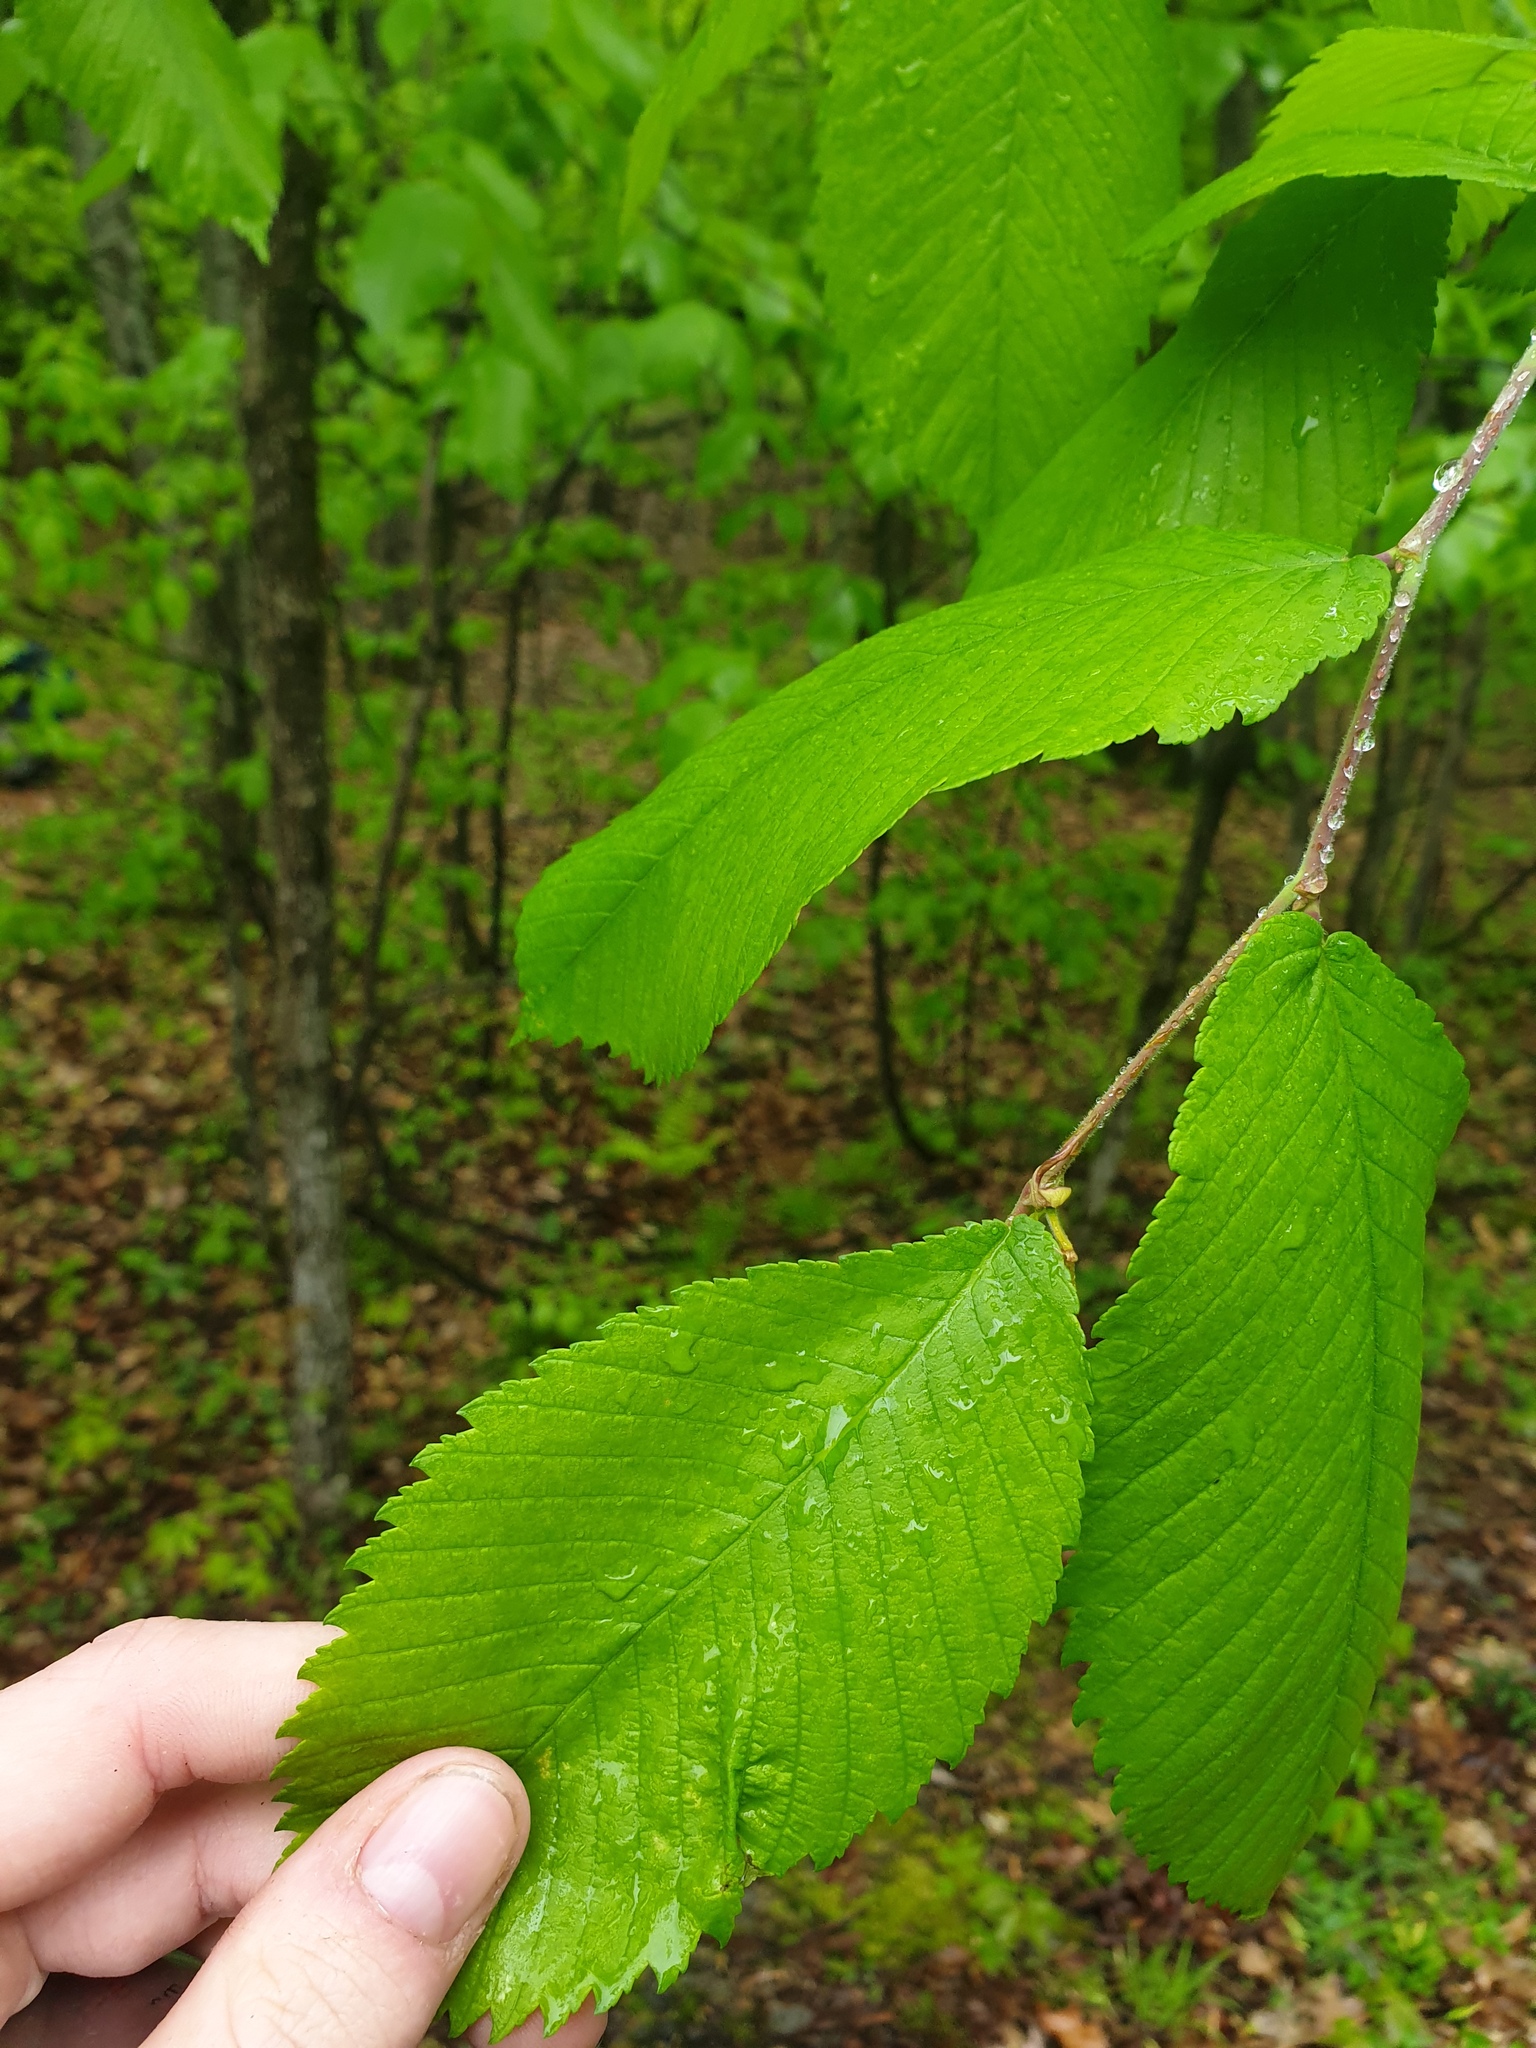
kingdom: Plantae
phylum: Tracheophyta
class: Magnoliopsida
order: Rosales
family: Ulmaceae
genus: Ulmus
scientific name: Ulmus thomasii
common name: Rock elm
